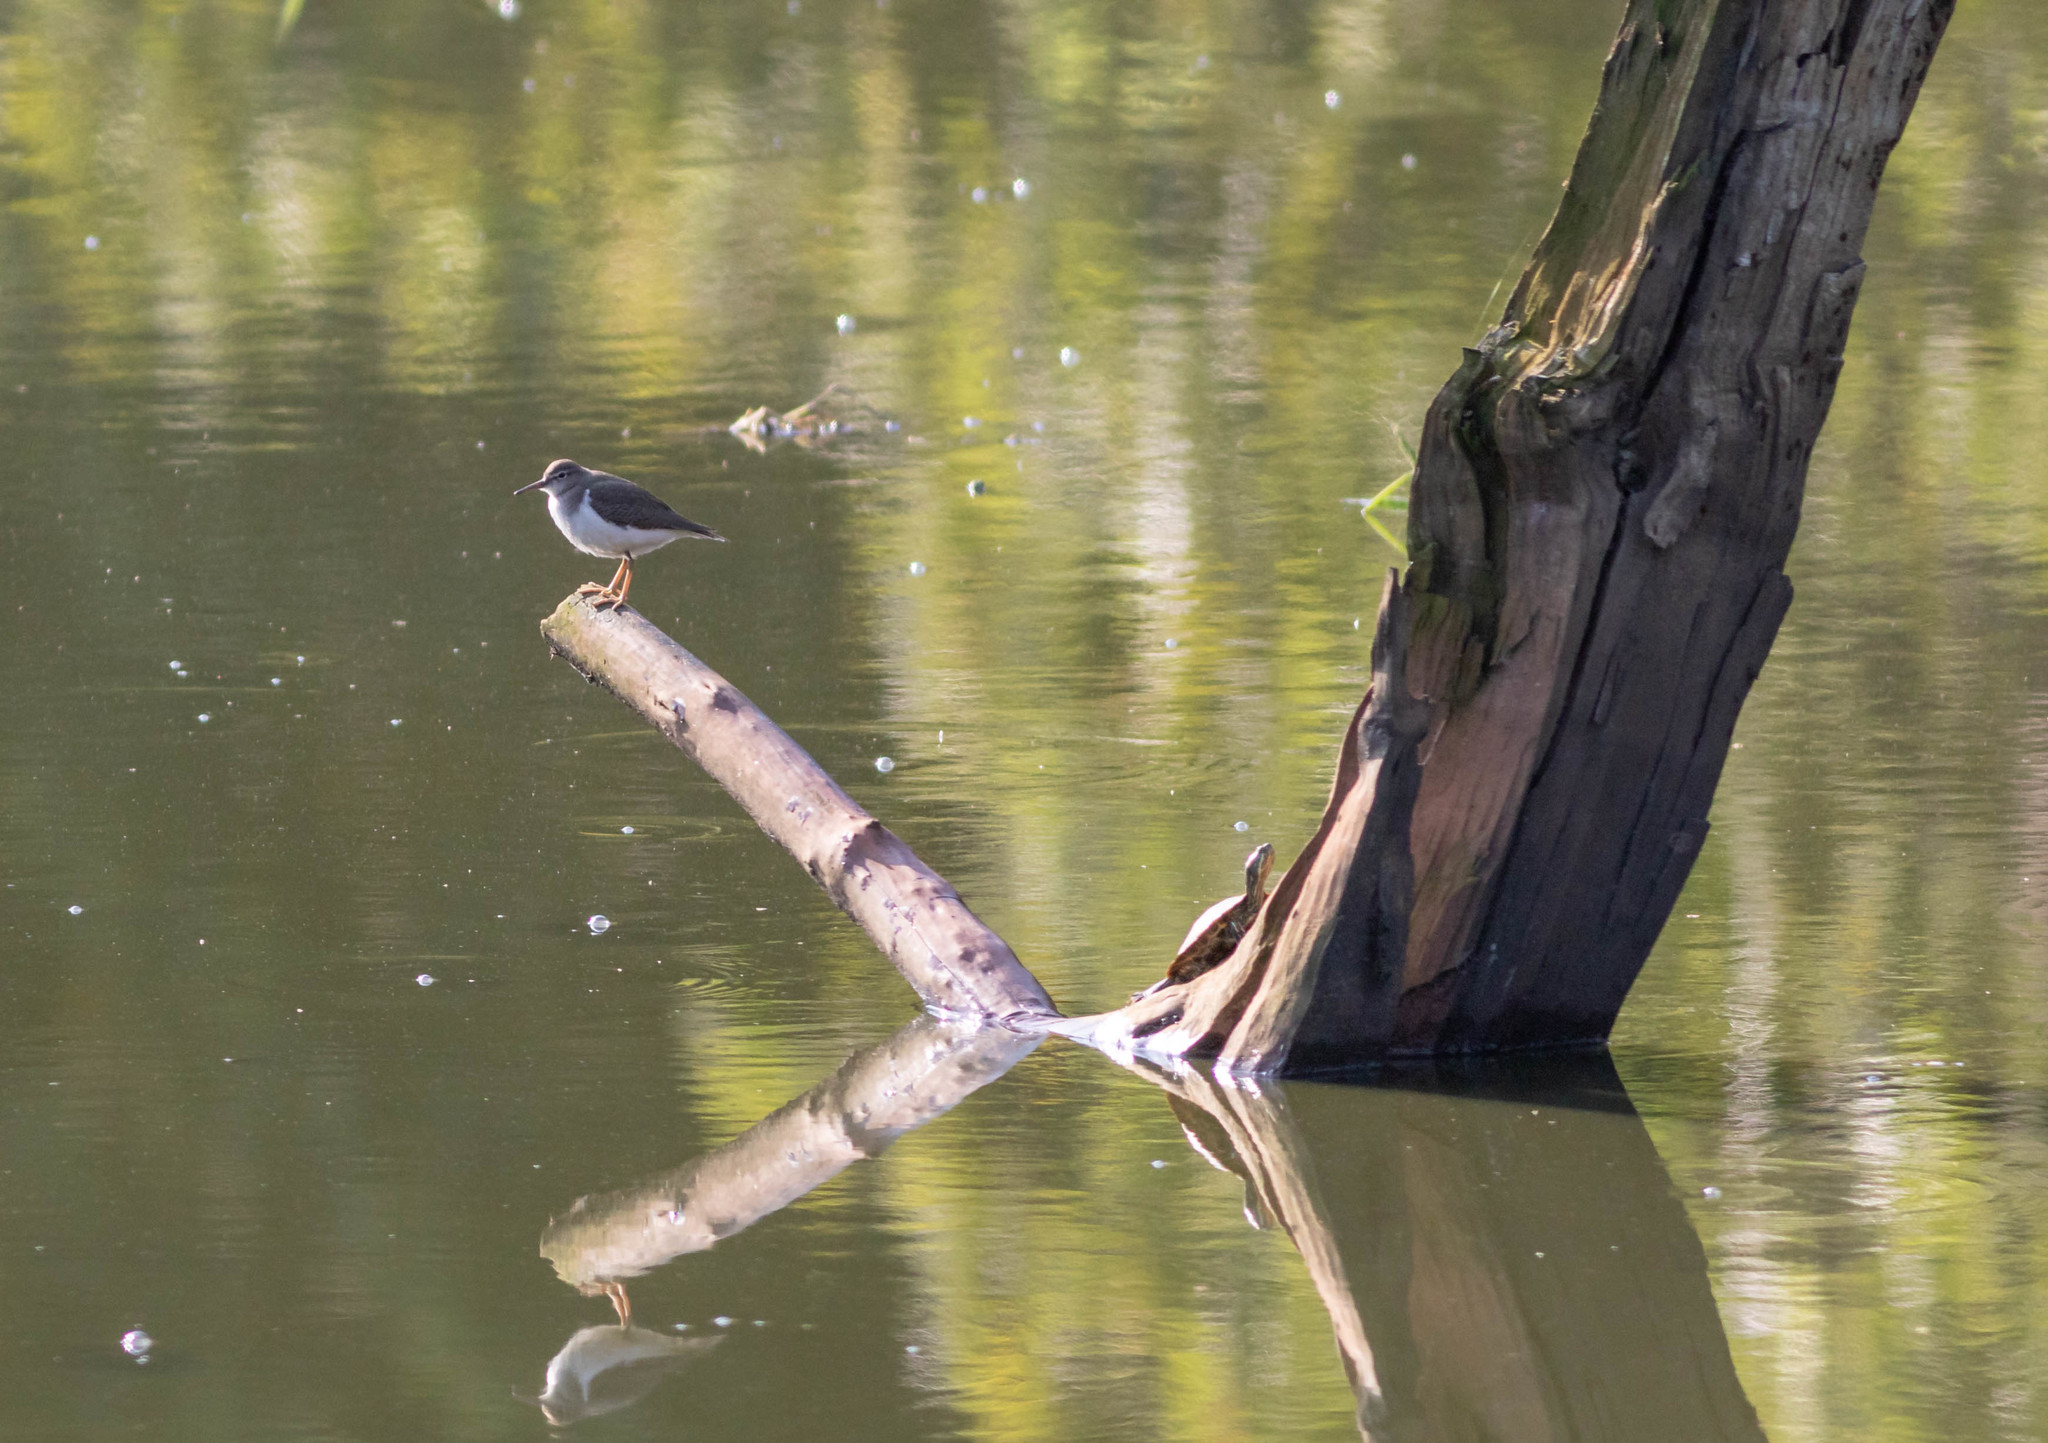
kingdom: Animalia
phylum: Chordata
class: Aves
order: Charadriiformes
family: Scolopacidae
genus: Actitis
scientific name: Actitis macularius
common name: Spotted sandpiper
